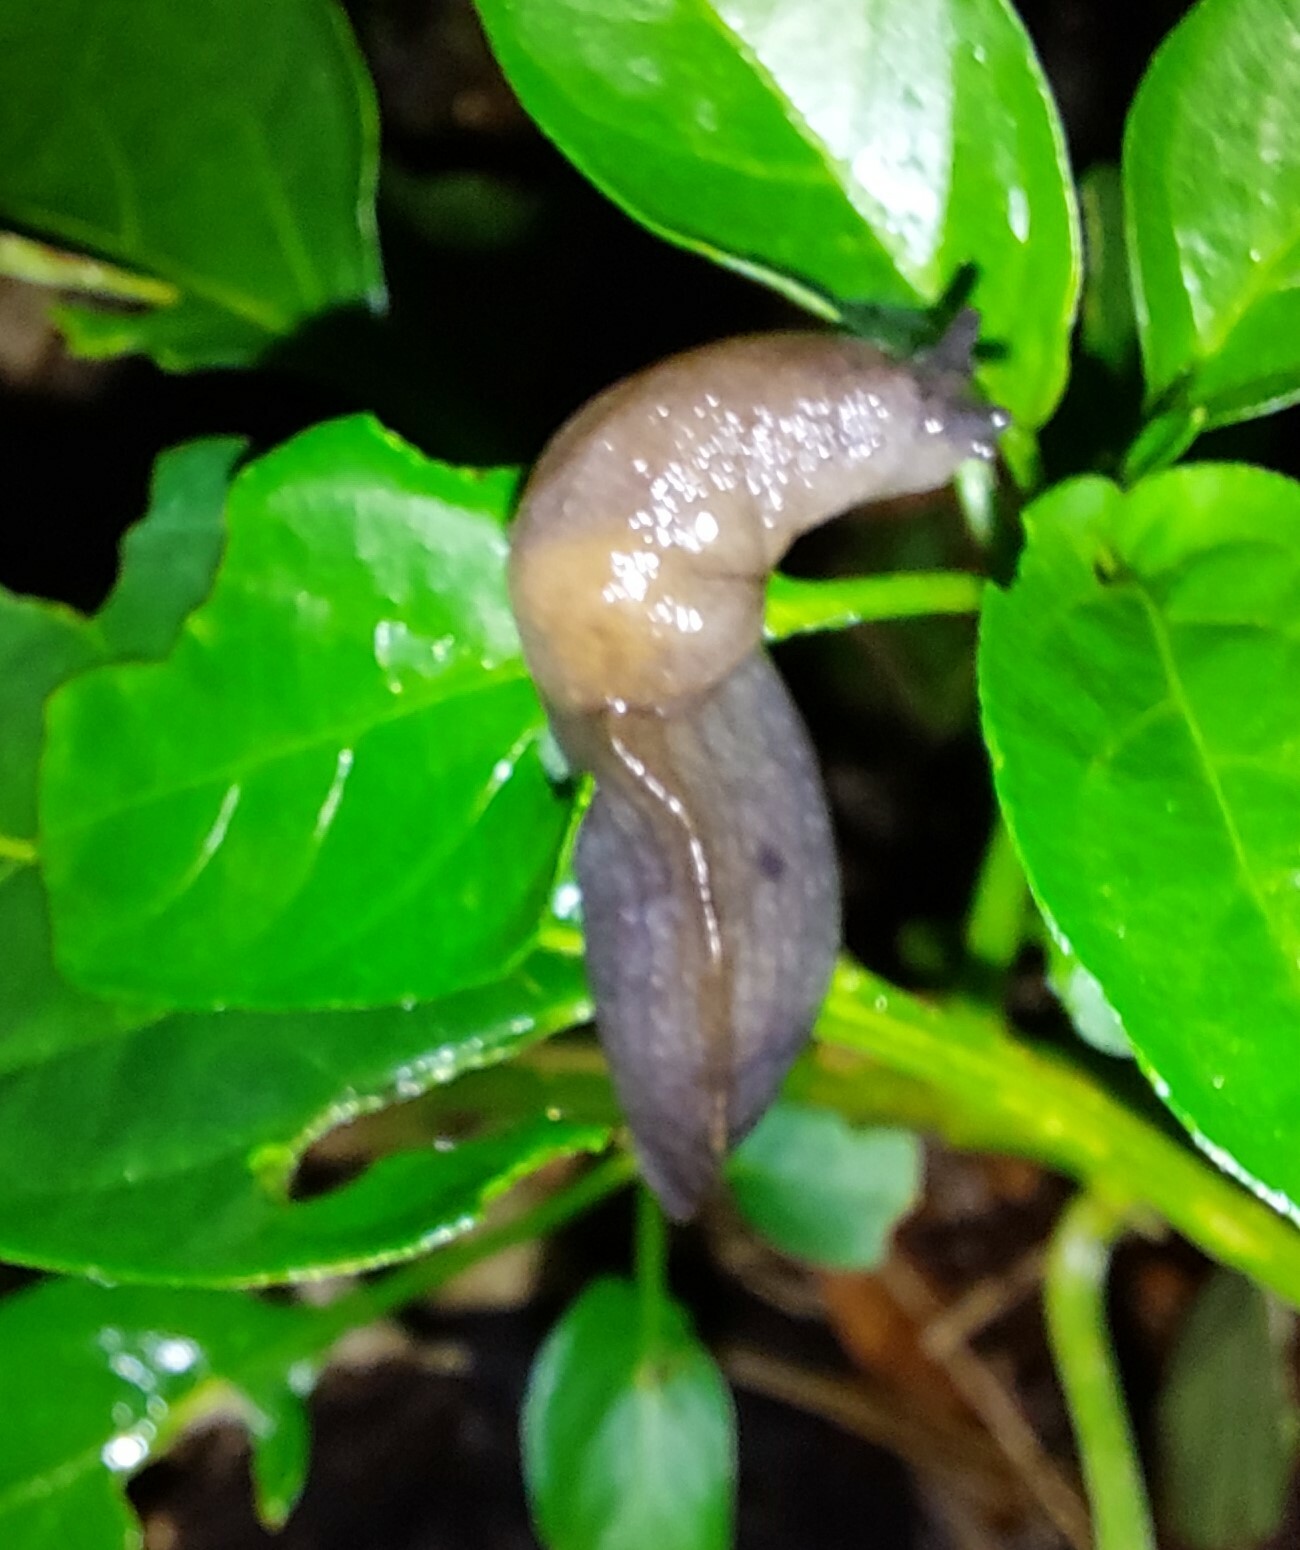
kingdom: Animalia
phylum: Mollusca
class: Gastropoda
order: Stylommatophora
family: Milacidae
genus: Milax
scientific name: Milax gagates
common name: Greenhouse slug
